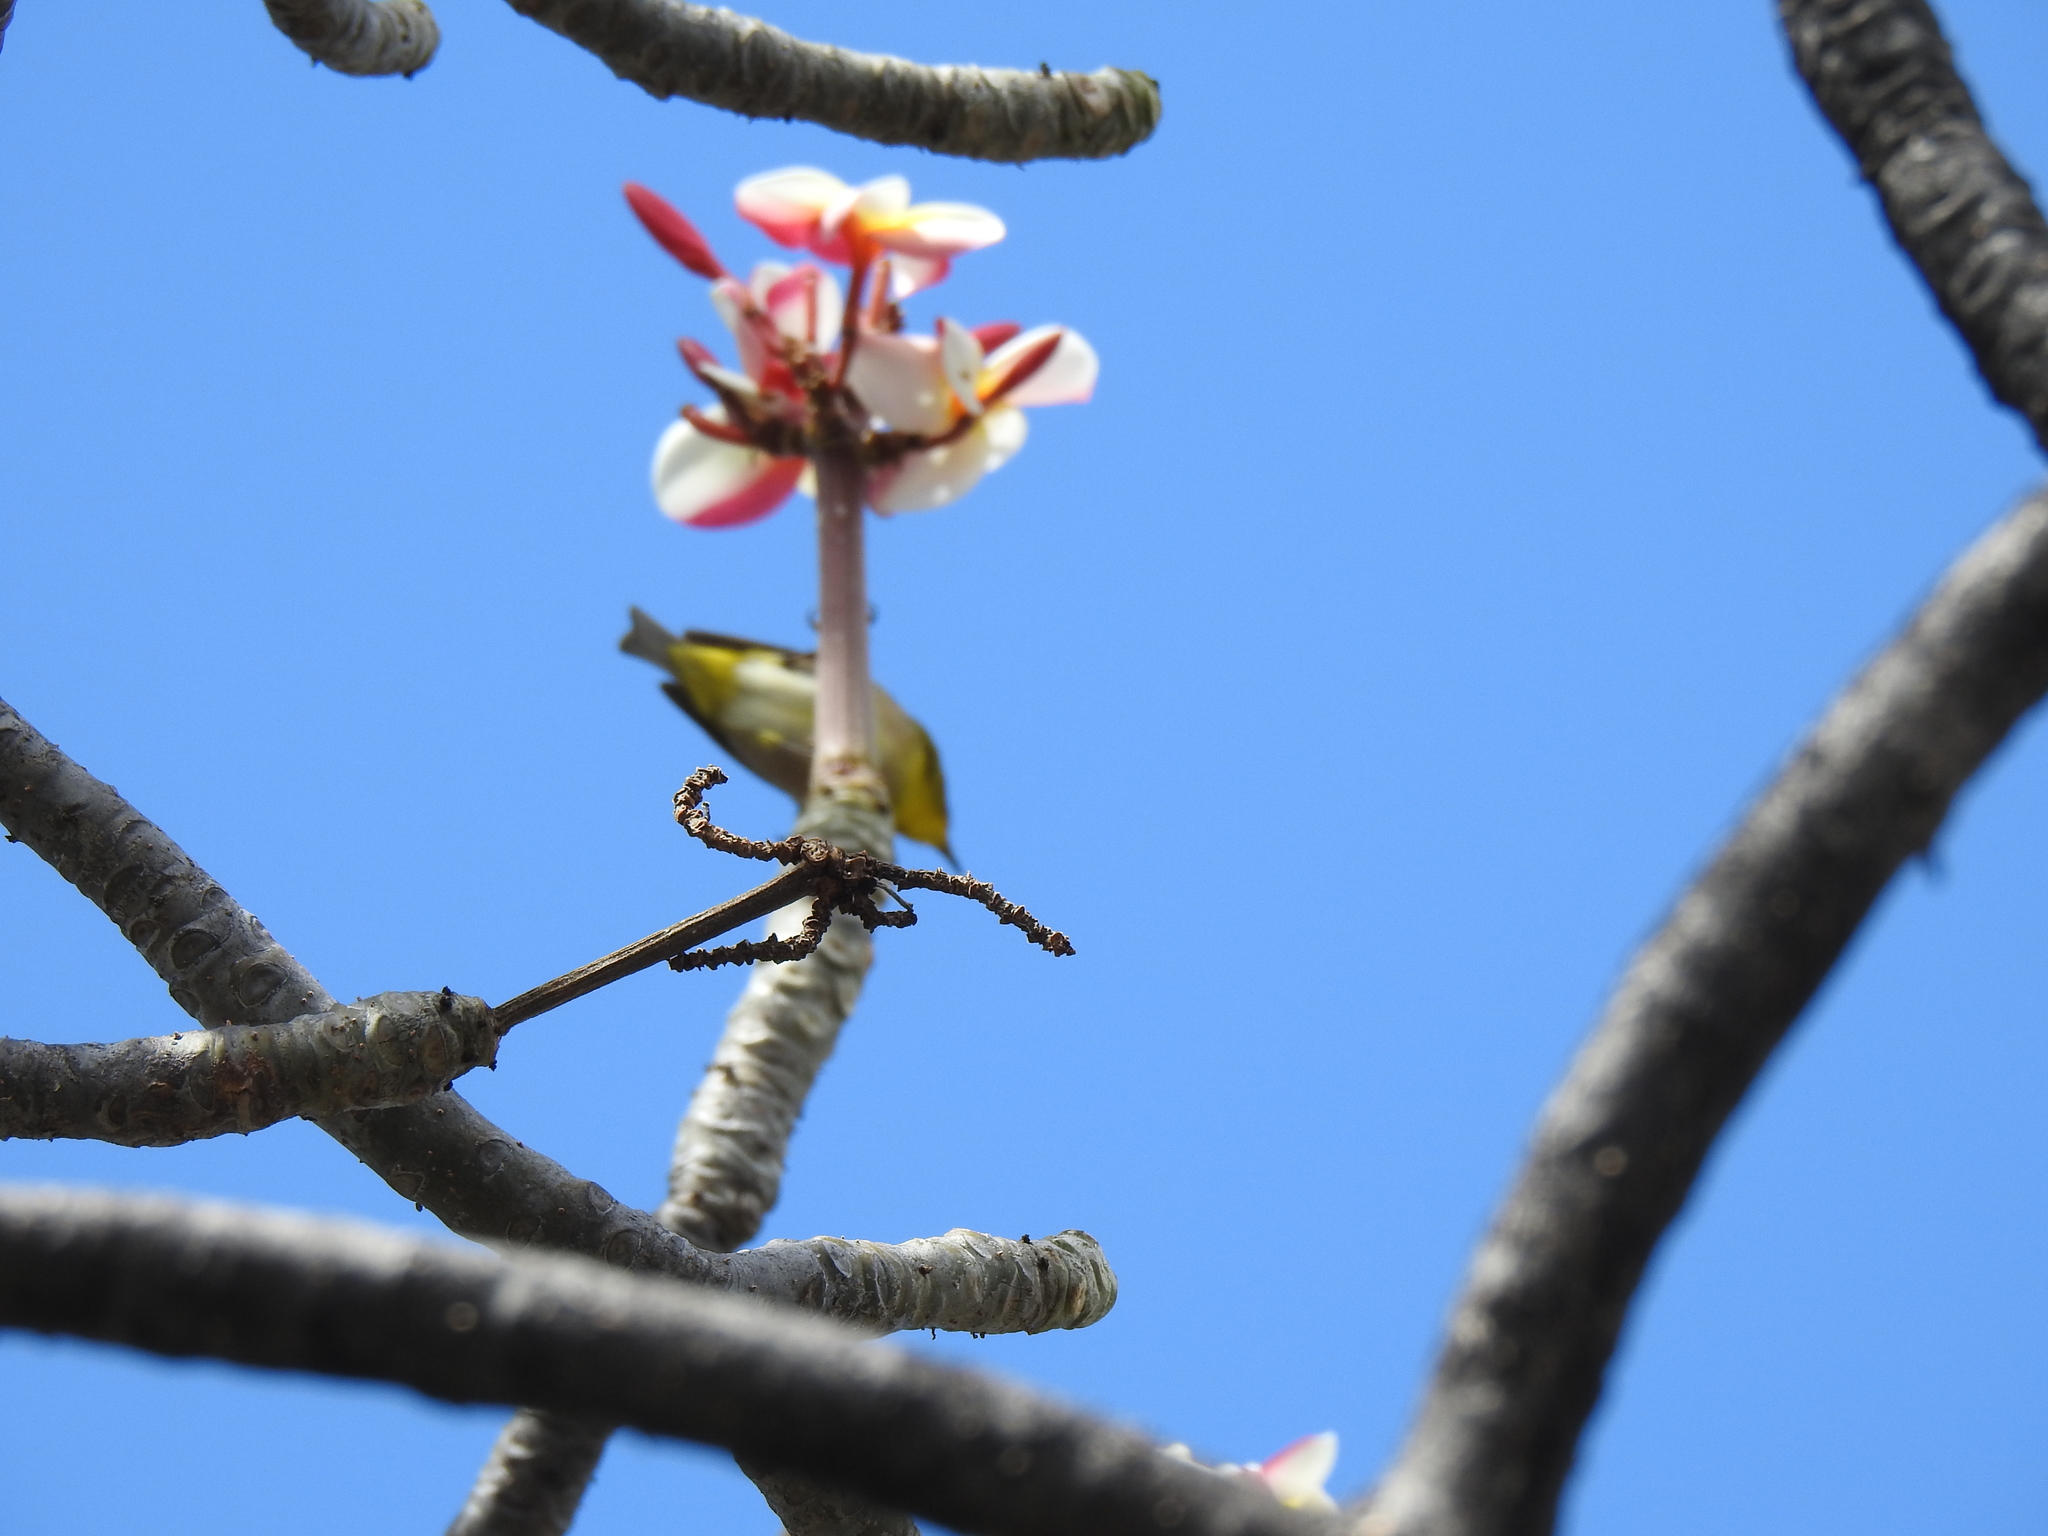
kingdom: Animalia
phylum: Chordata
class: Aves
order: Passeriformes
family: Zosteropidae
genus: Zosterops
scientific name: Zosterops japonicus
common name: Japanese white-eye
